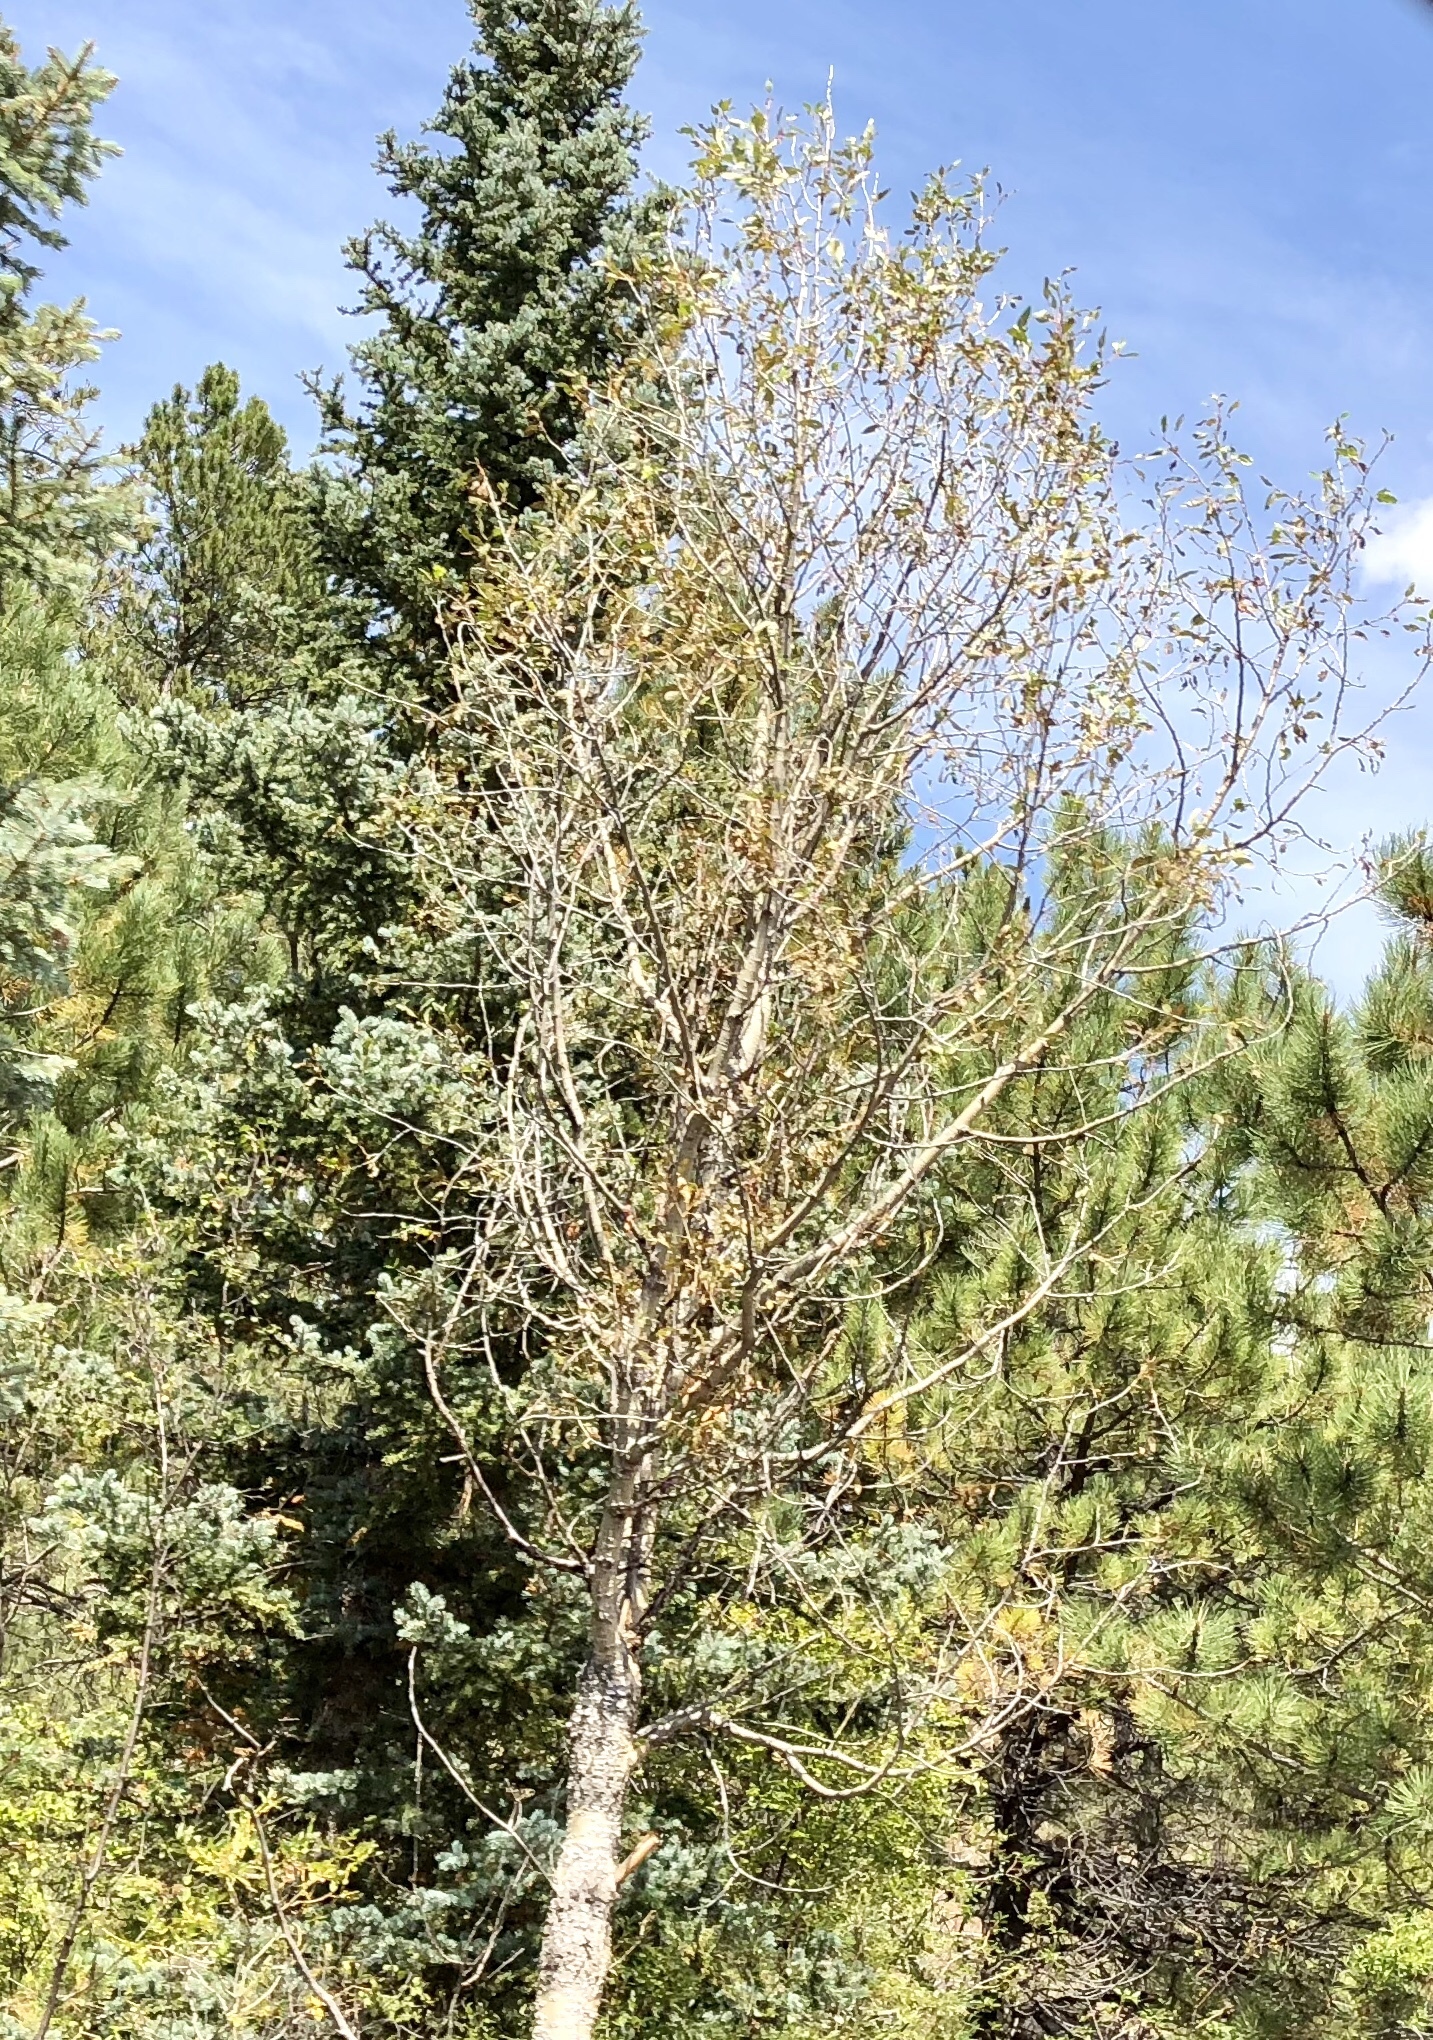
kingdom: Plantae
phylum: Tracheophyta
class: Magnoliopsida
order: Malpighiales
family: Salicaceae
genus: Populus
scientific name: Populus tremuloides
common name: Quaking aspen
